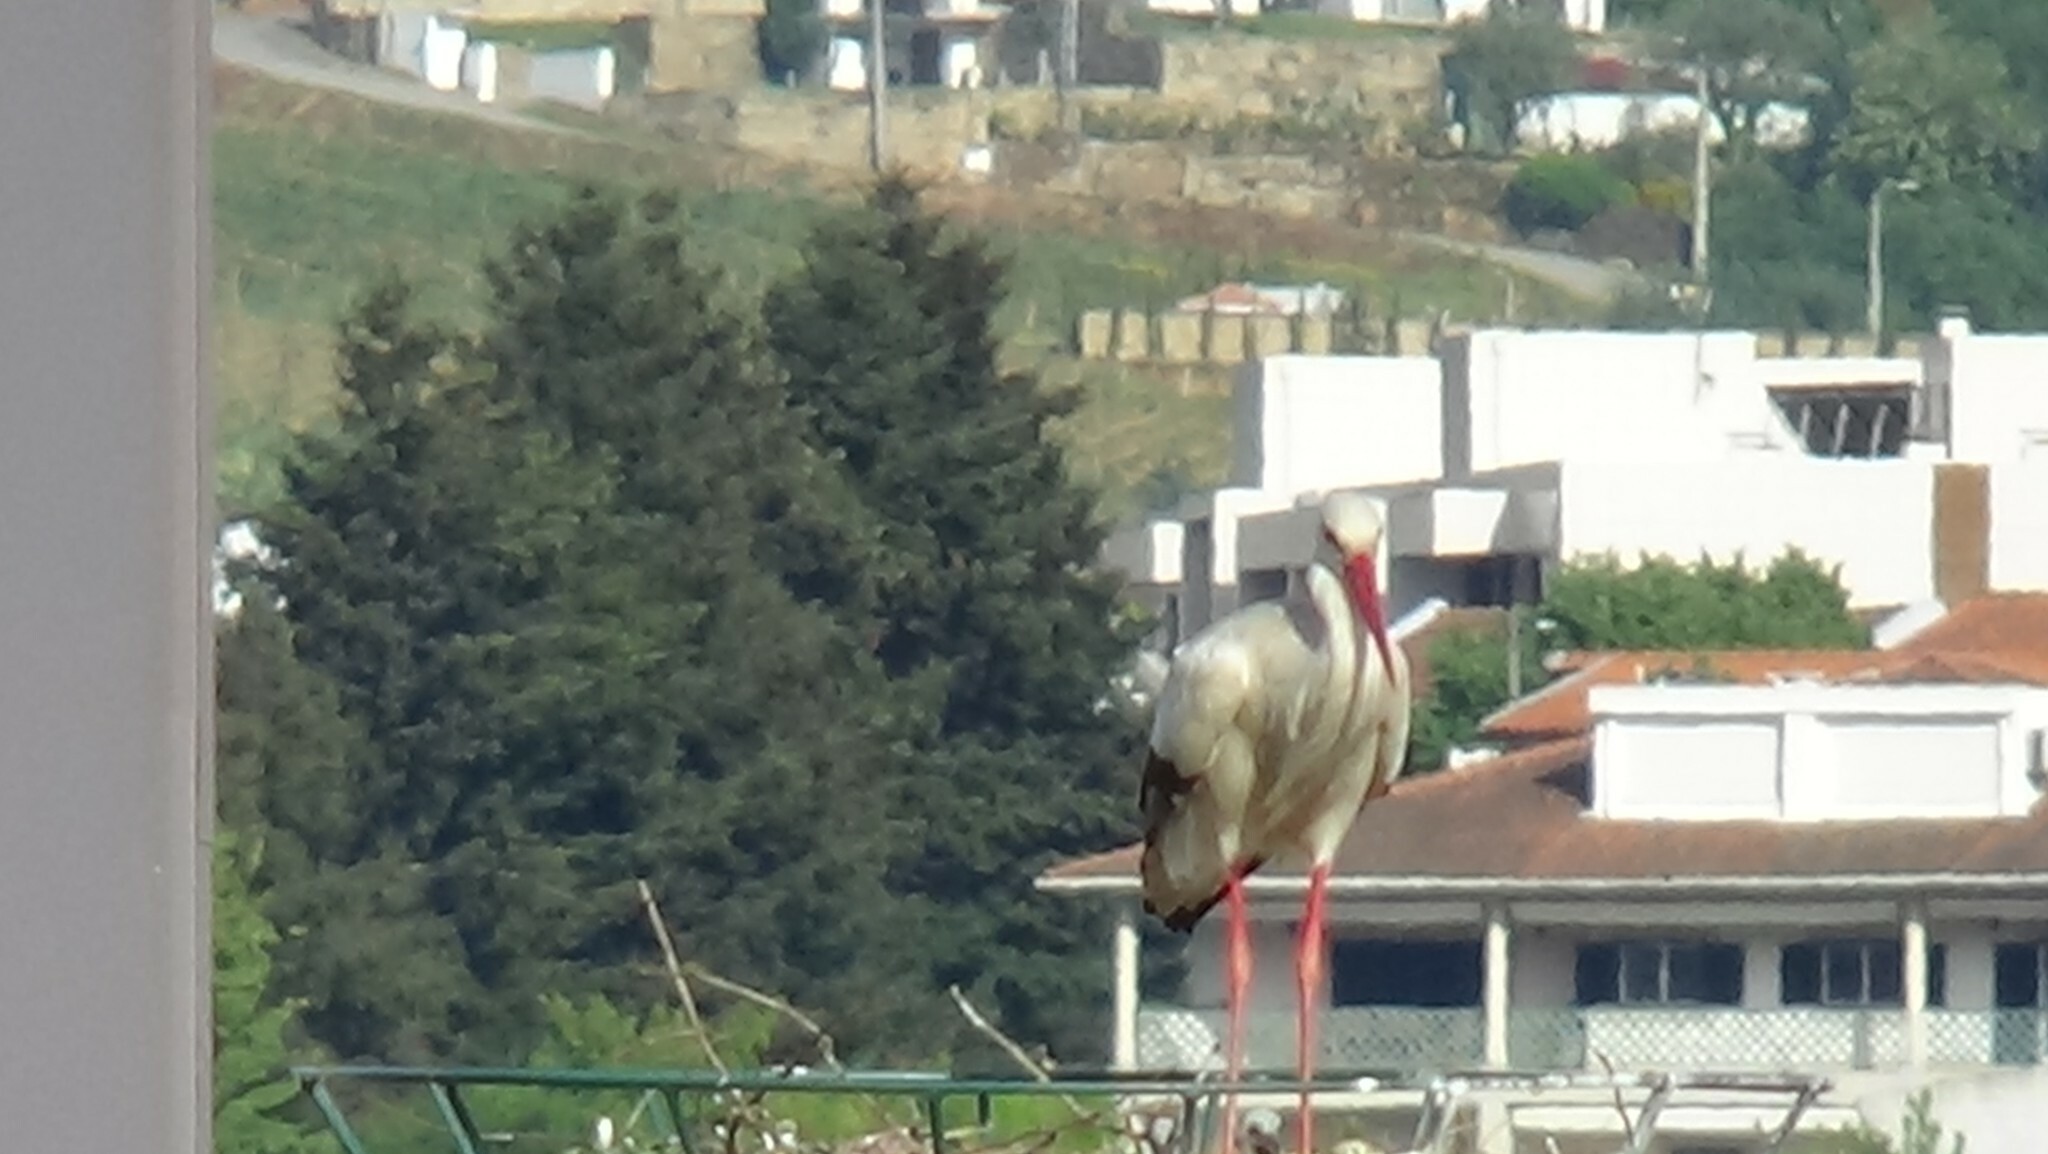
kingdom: Animalia
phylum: Chordata
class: Aves
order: Ciconiiformes
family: Ciconiidae
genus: Ciconia
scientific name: Ciconia ciconia
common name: White stork
